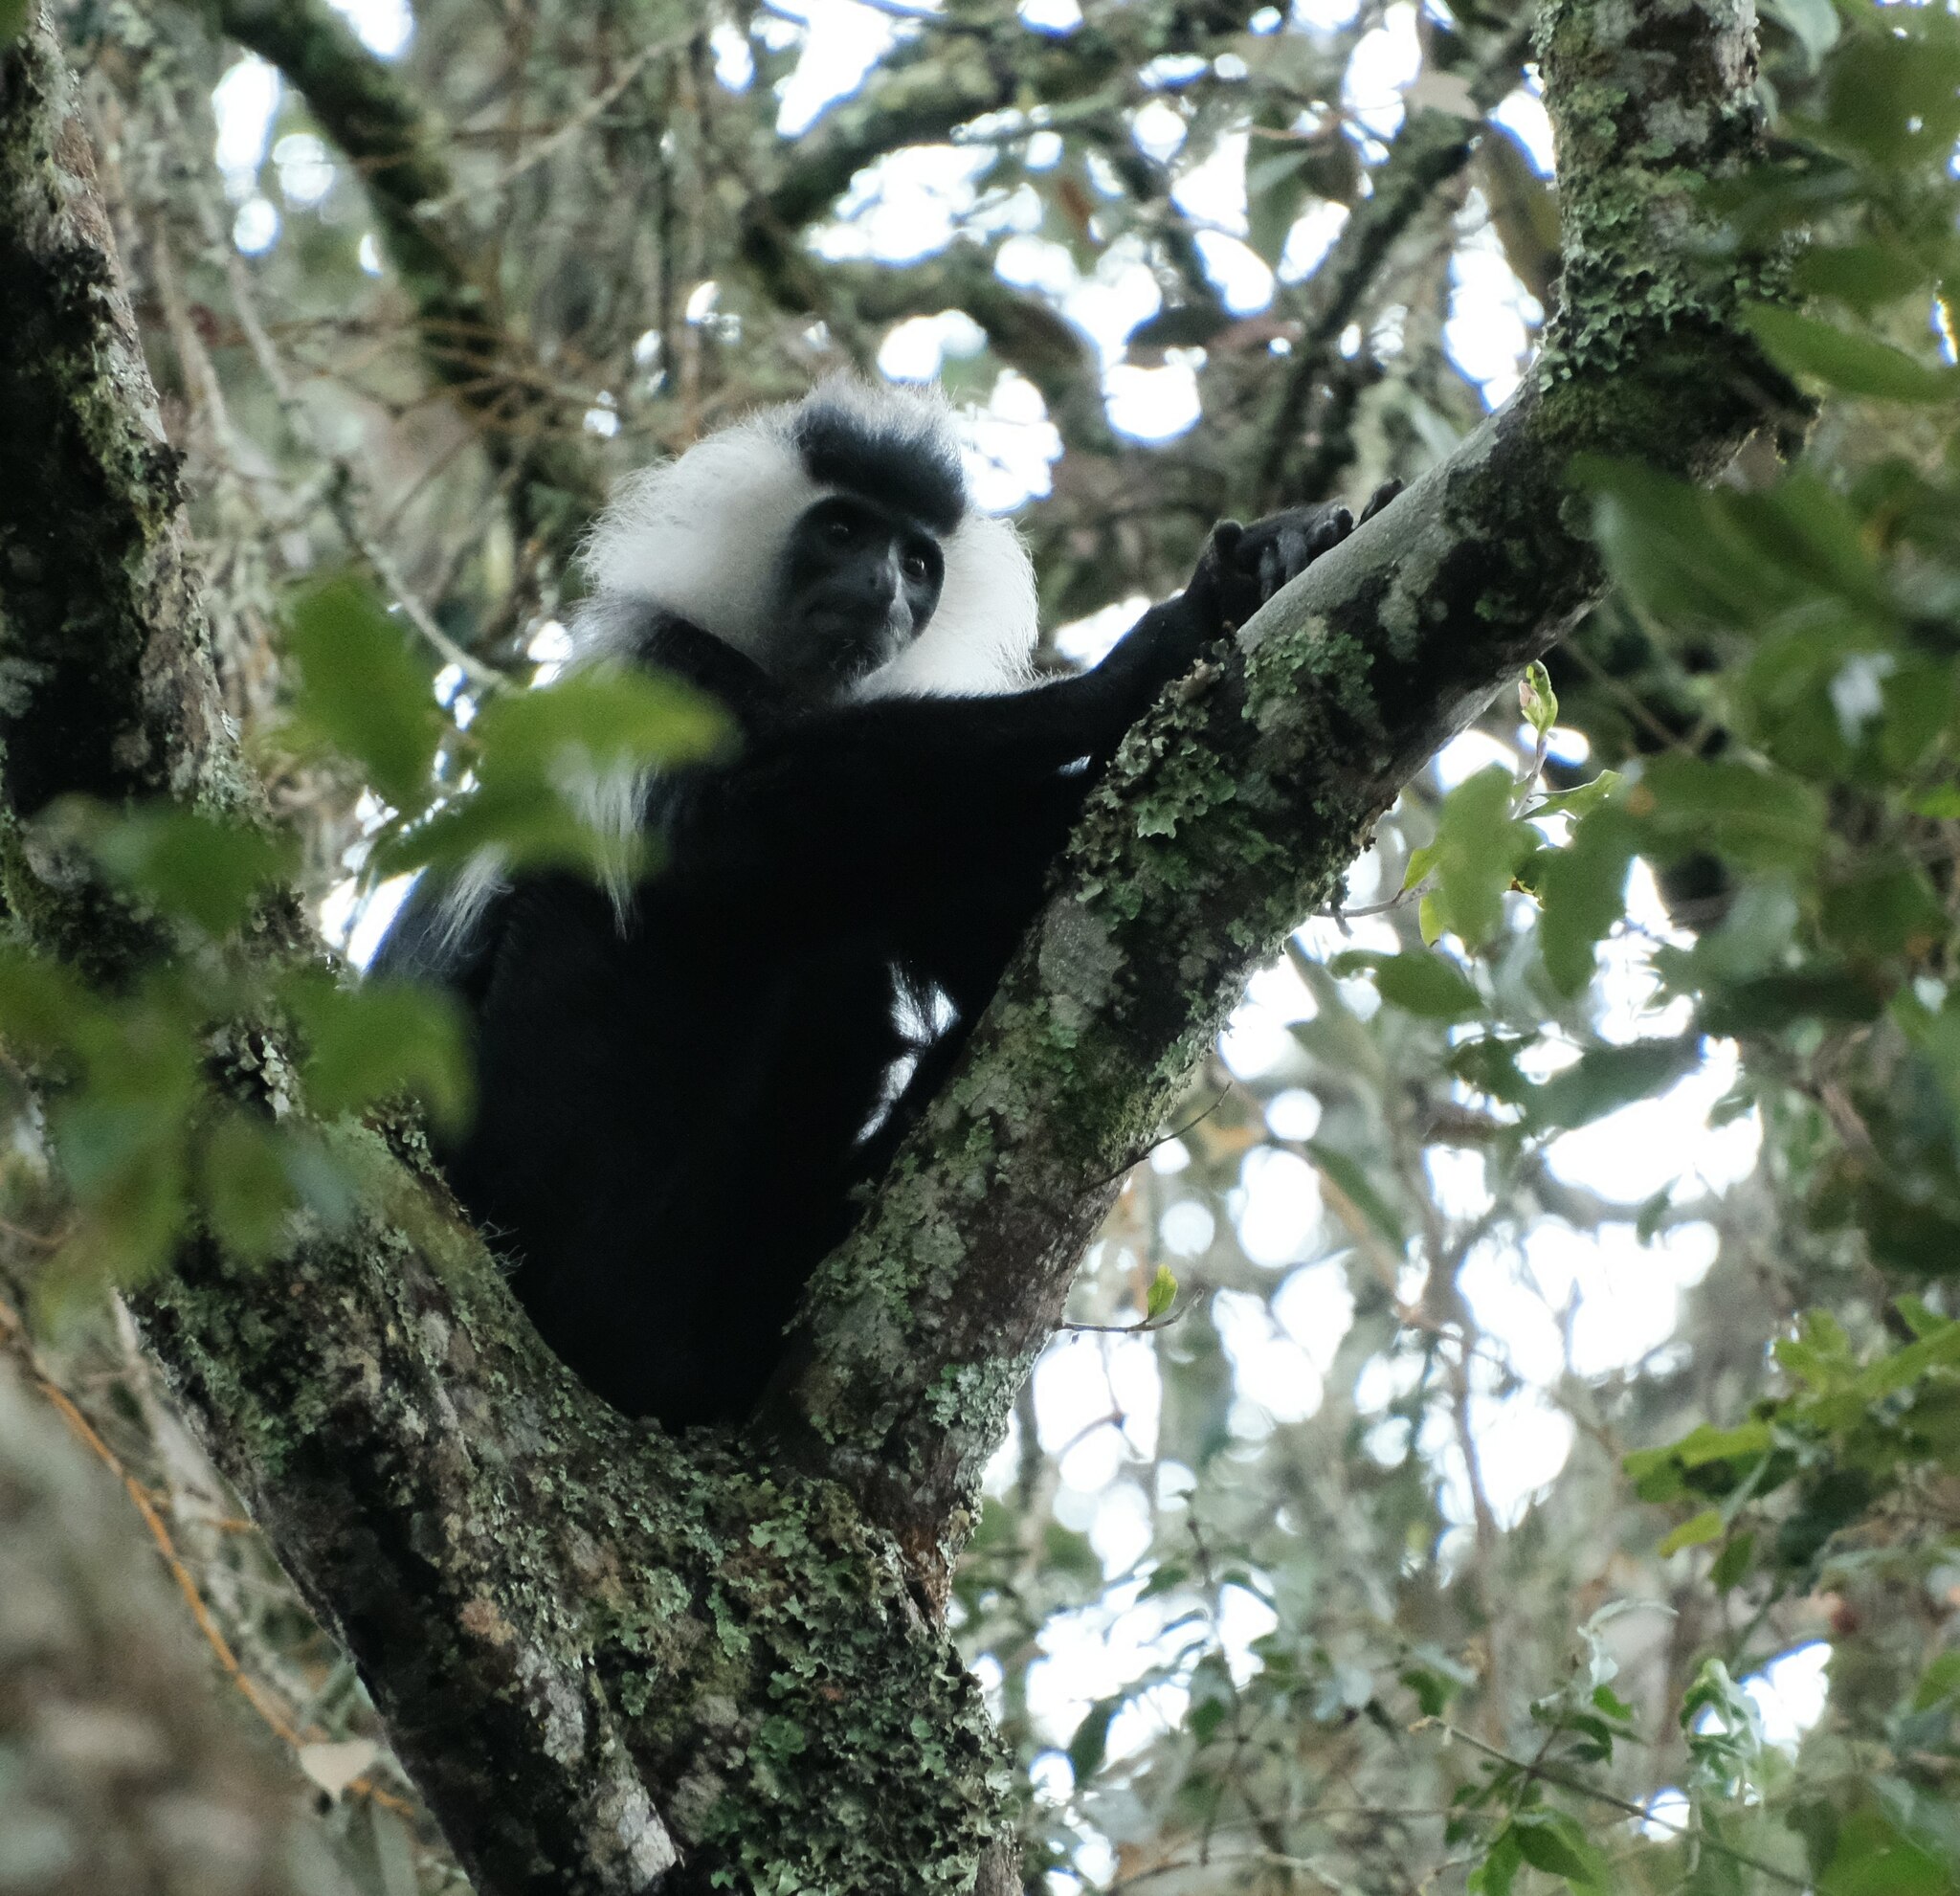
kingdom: Animalia
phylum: Chordata
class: Mammalia
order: Primates
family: Cercopithecidae
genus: Colobus
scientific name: Colobus angolensis
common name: Angola colobus
